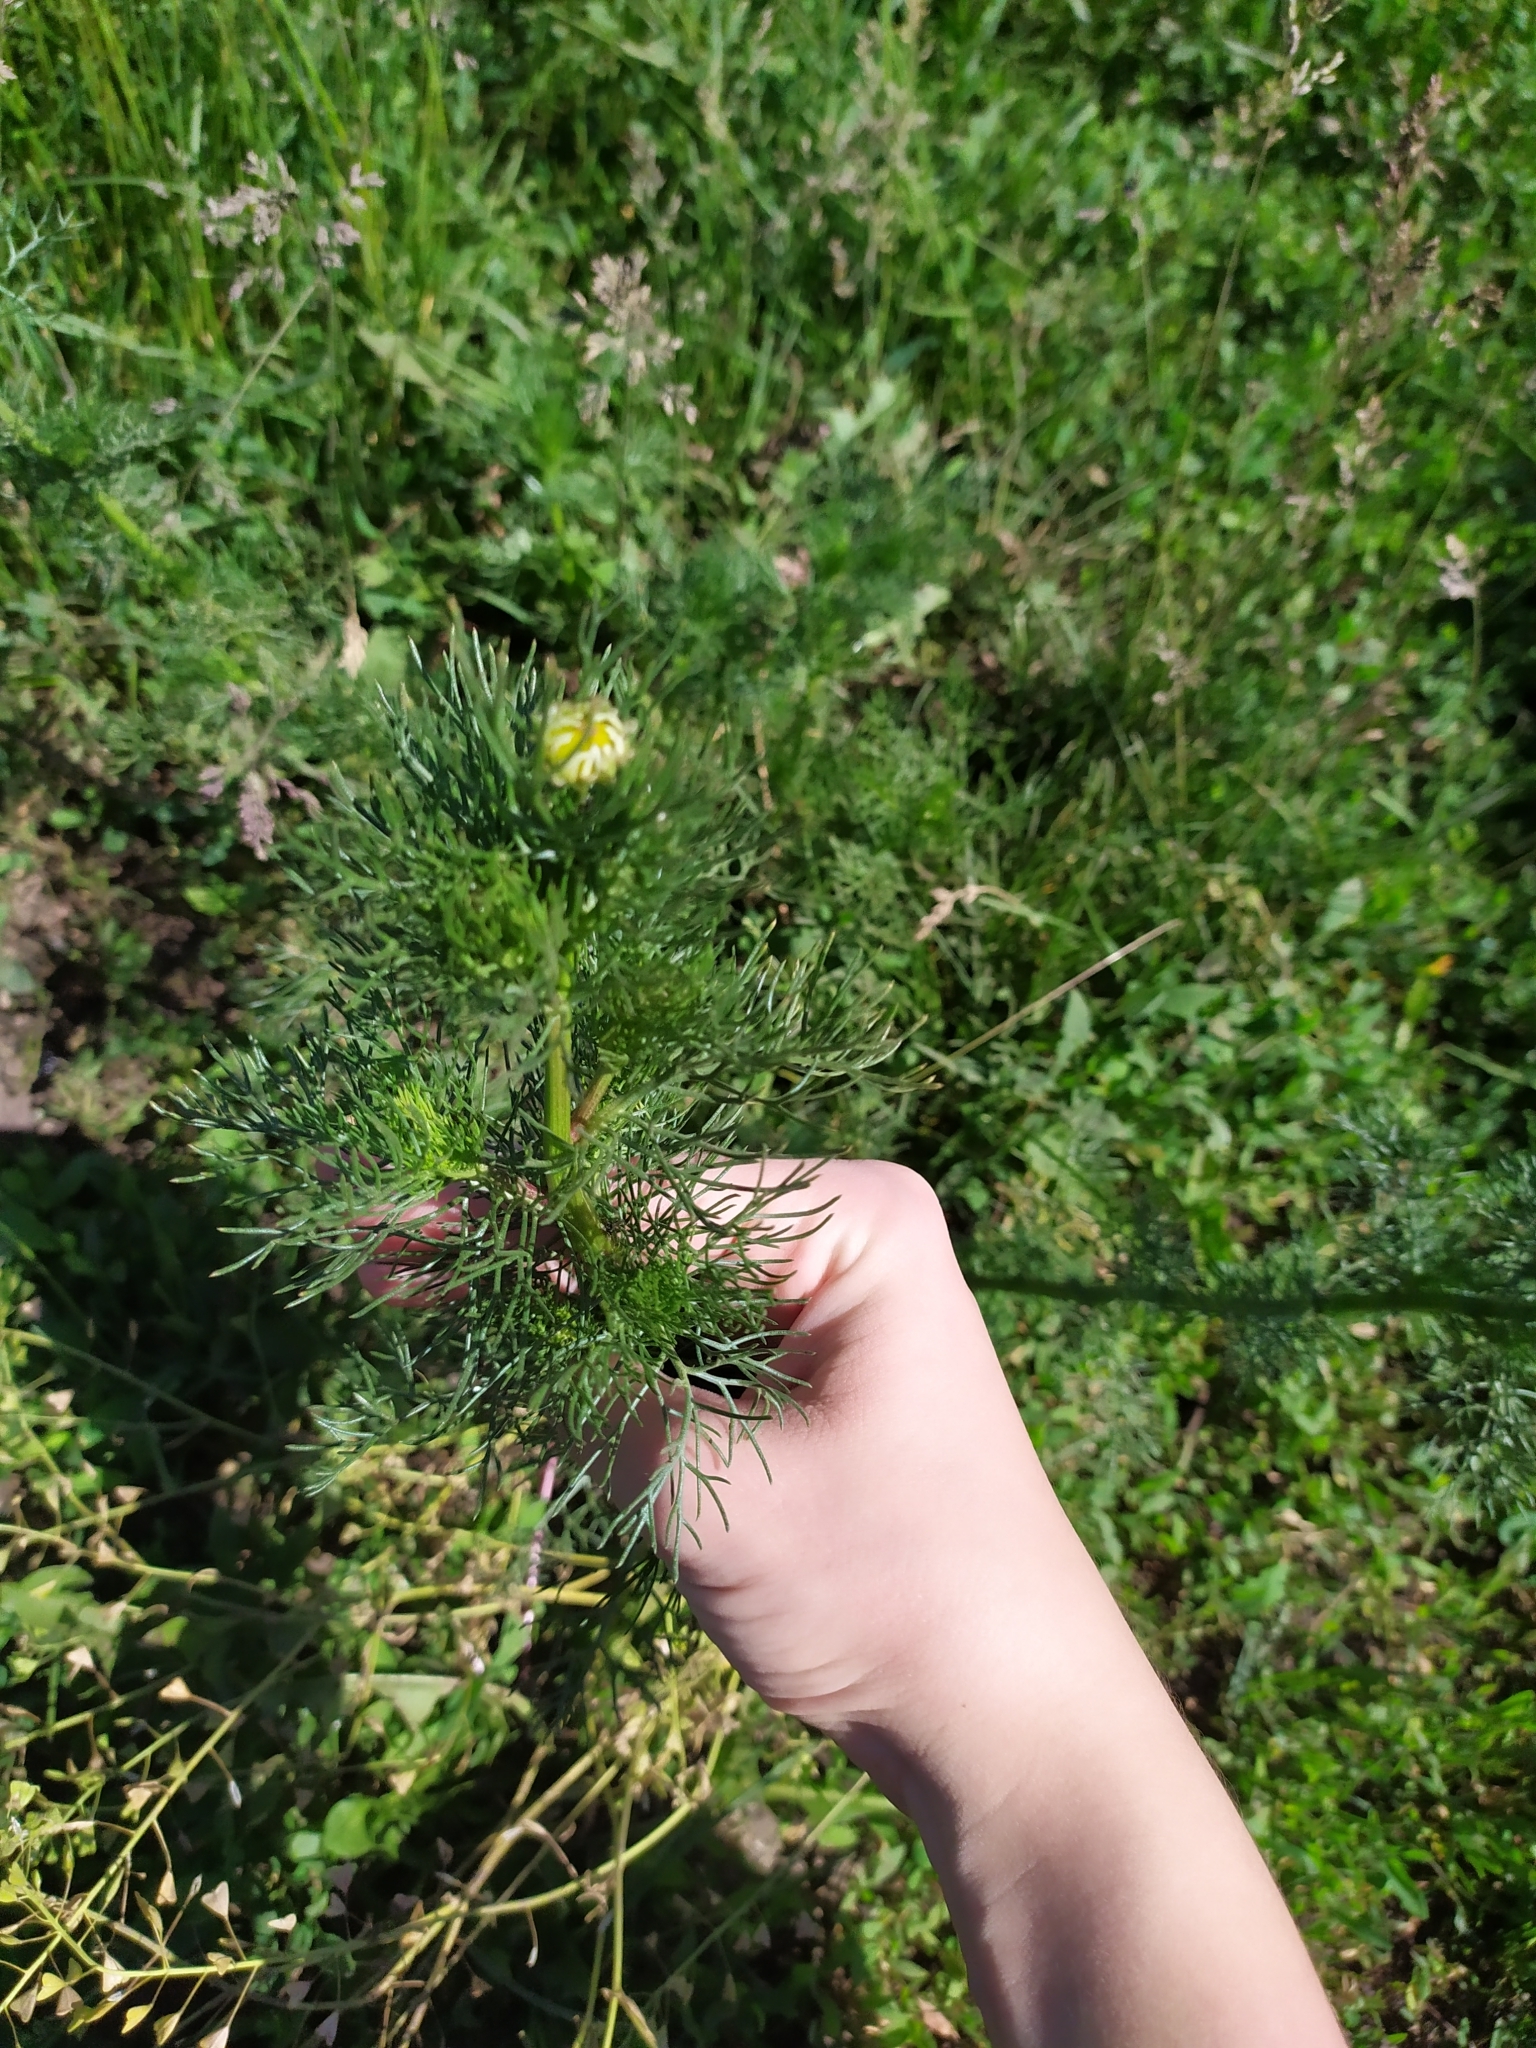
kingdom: Plantae
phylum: Tracheophyta
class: Magnoliopsida
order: Asterales
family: Asteraceae
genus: Tripleurospermum
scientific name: Tripleurospermum inodorum
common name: Scentless mayweed
